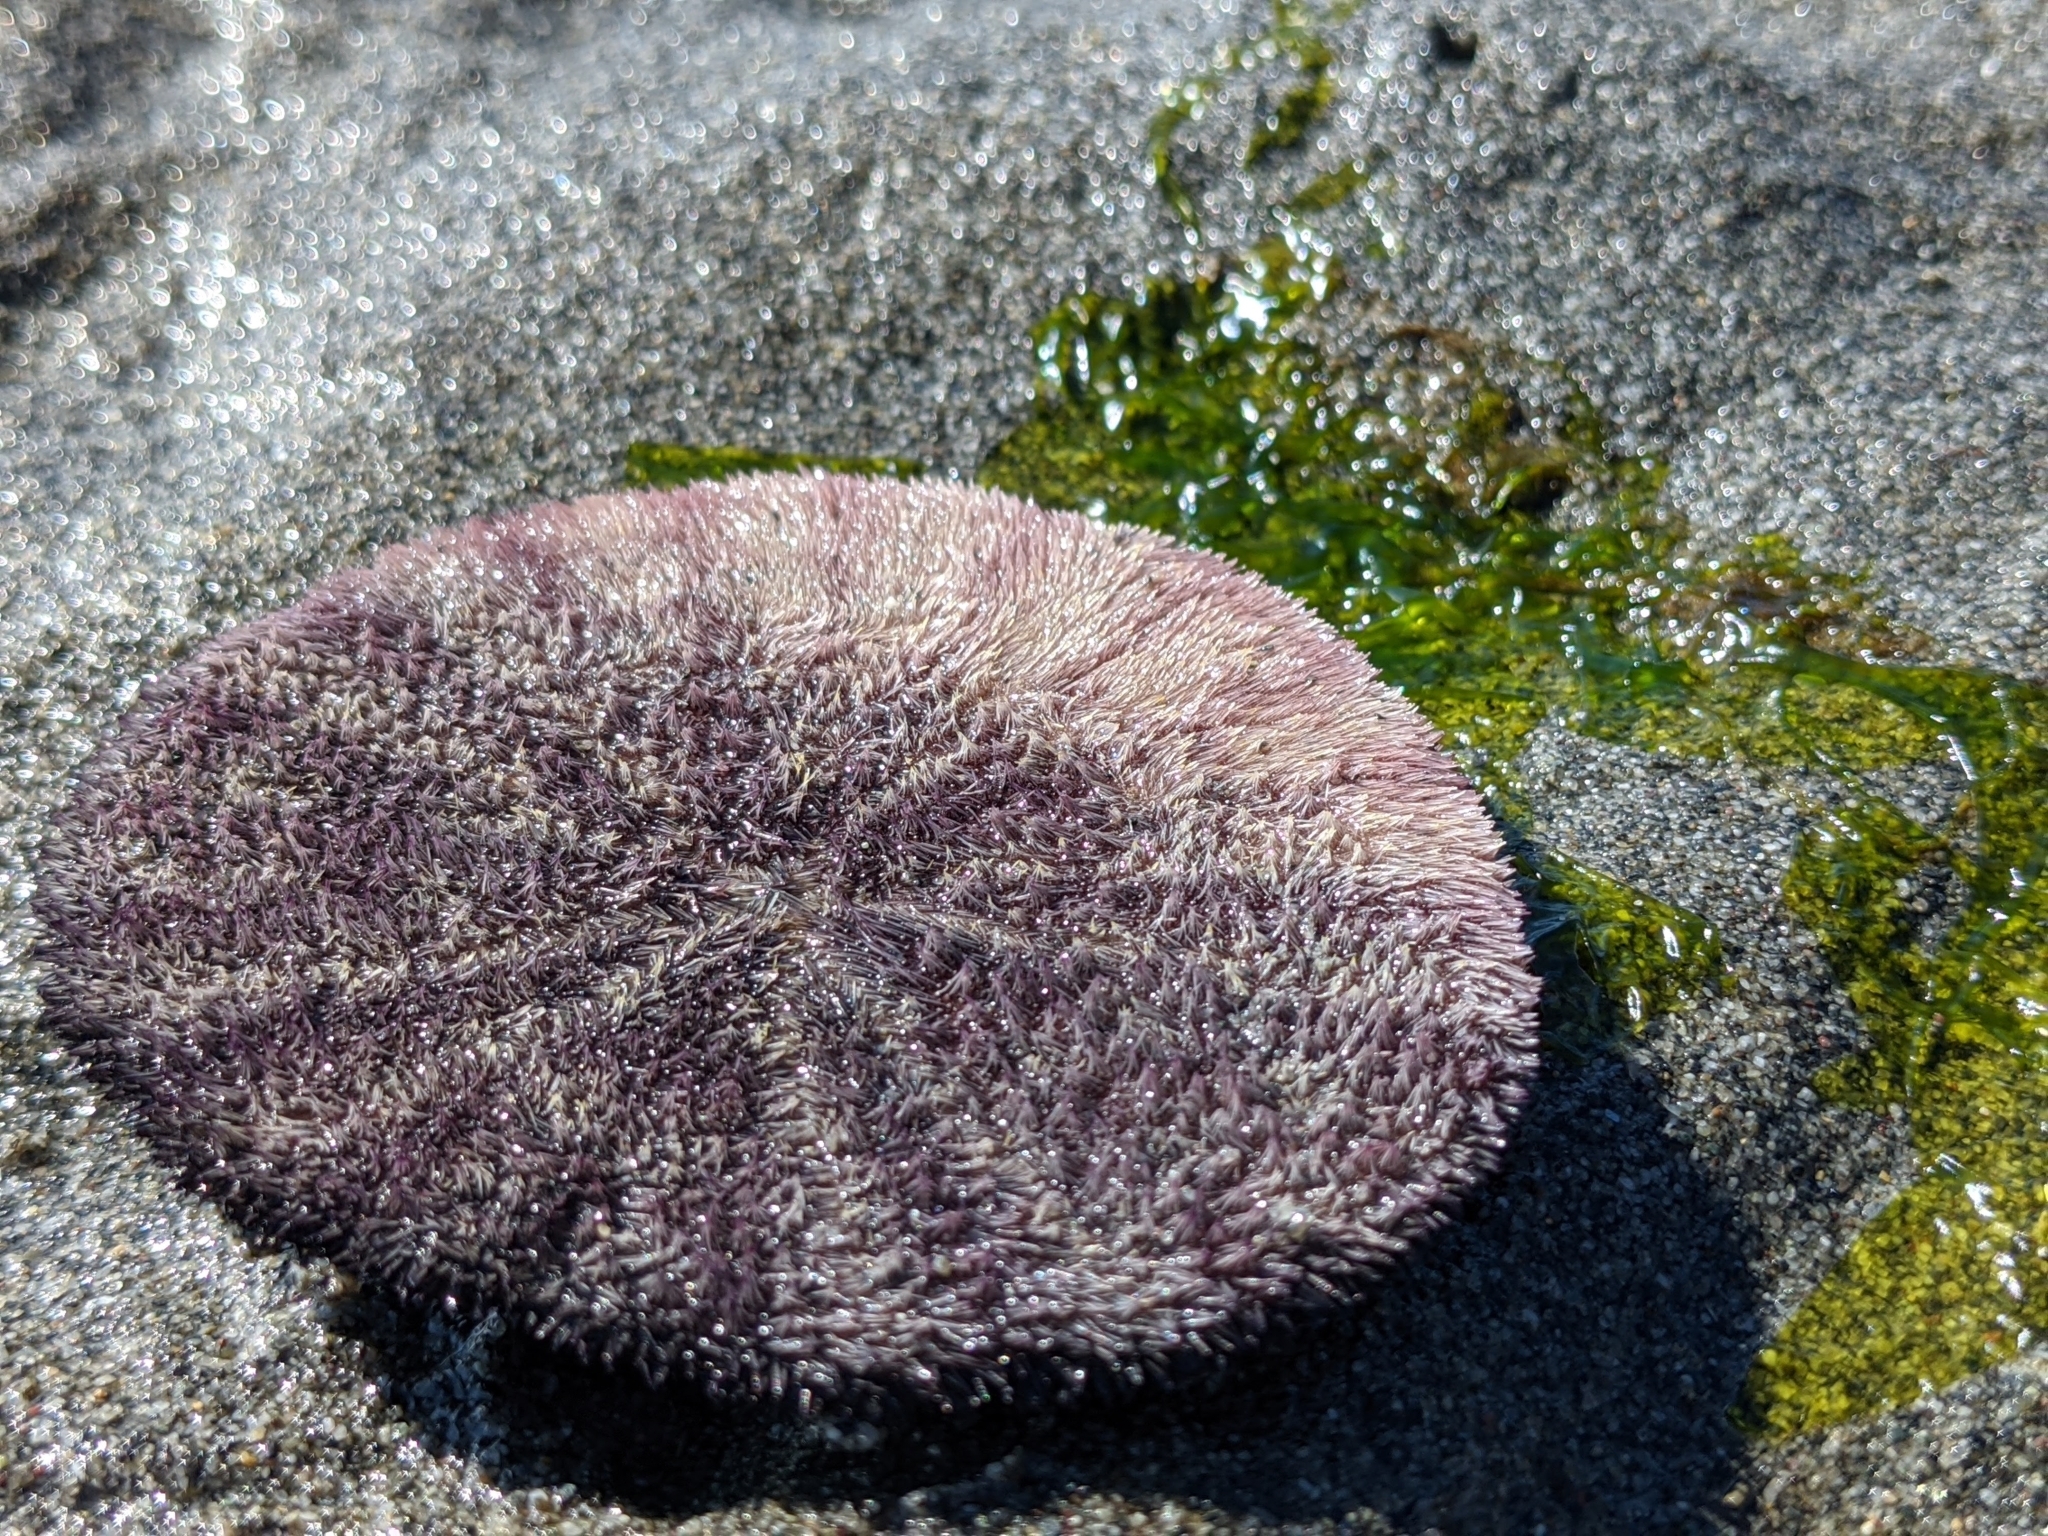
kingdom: Animalia
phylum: Echinodermata
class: Echinoidea
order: Echinolampadacea
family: Dendrasteridae
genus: Dendraster
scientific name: Dendraster excentricus
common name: Eccentric sand dollar sea urchin
